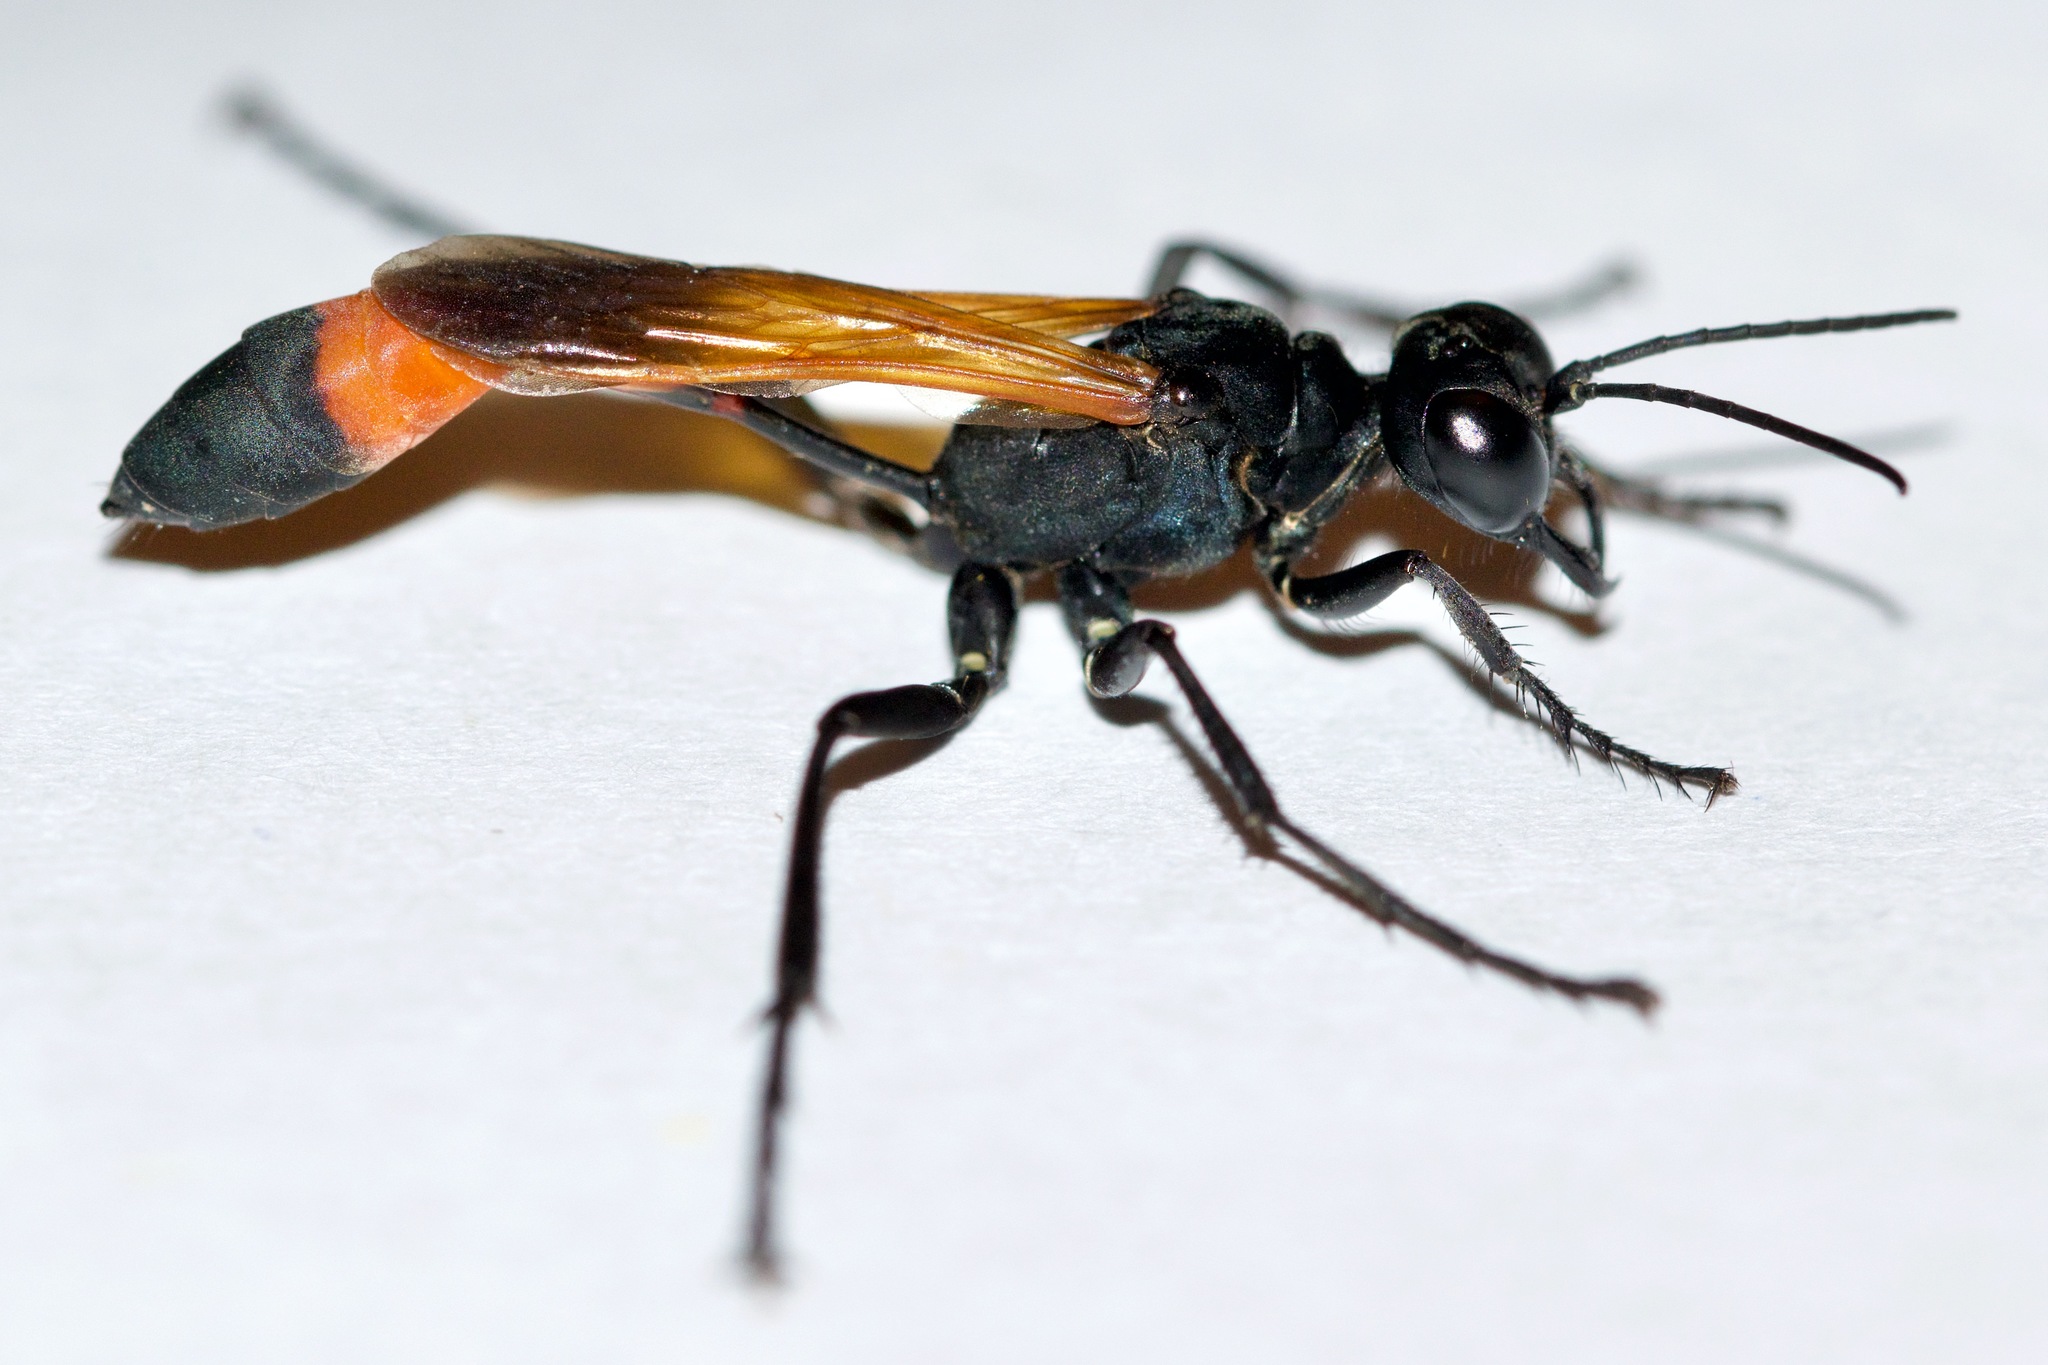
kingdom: Animalia
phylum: Arthropoda
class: Insecta
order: Hymenoptera
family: Sphecidae
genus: Ammophila
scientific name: Ammophila pictipennis
